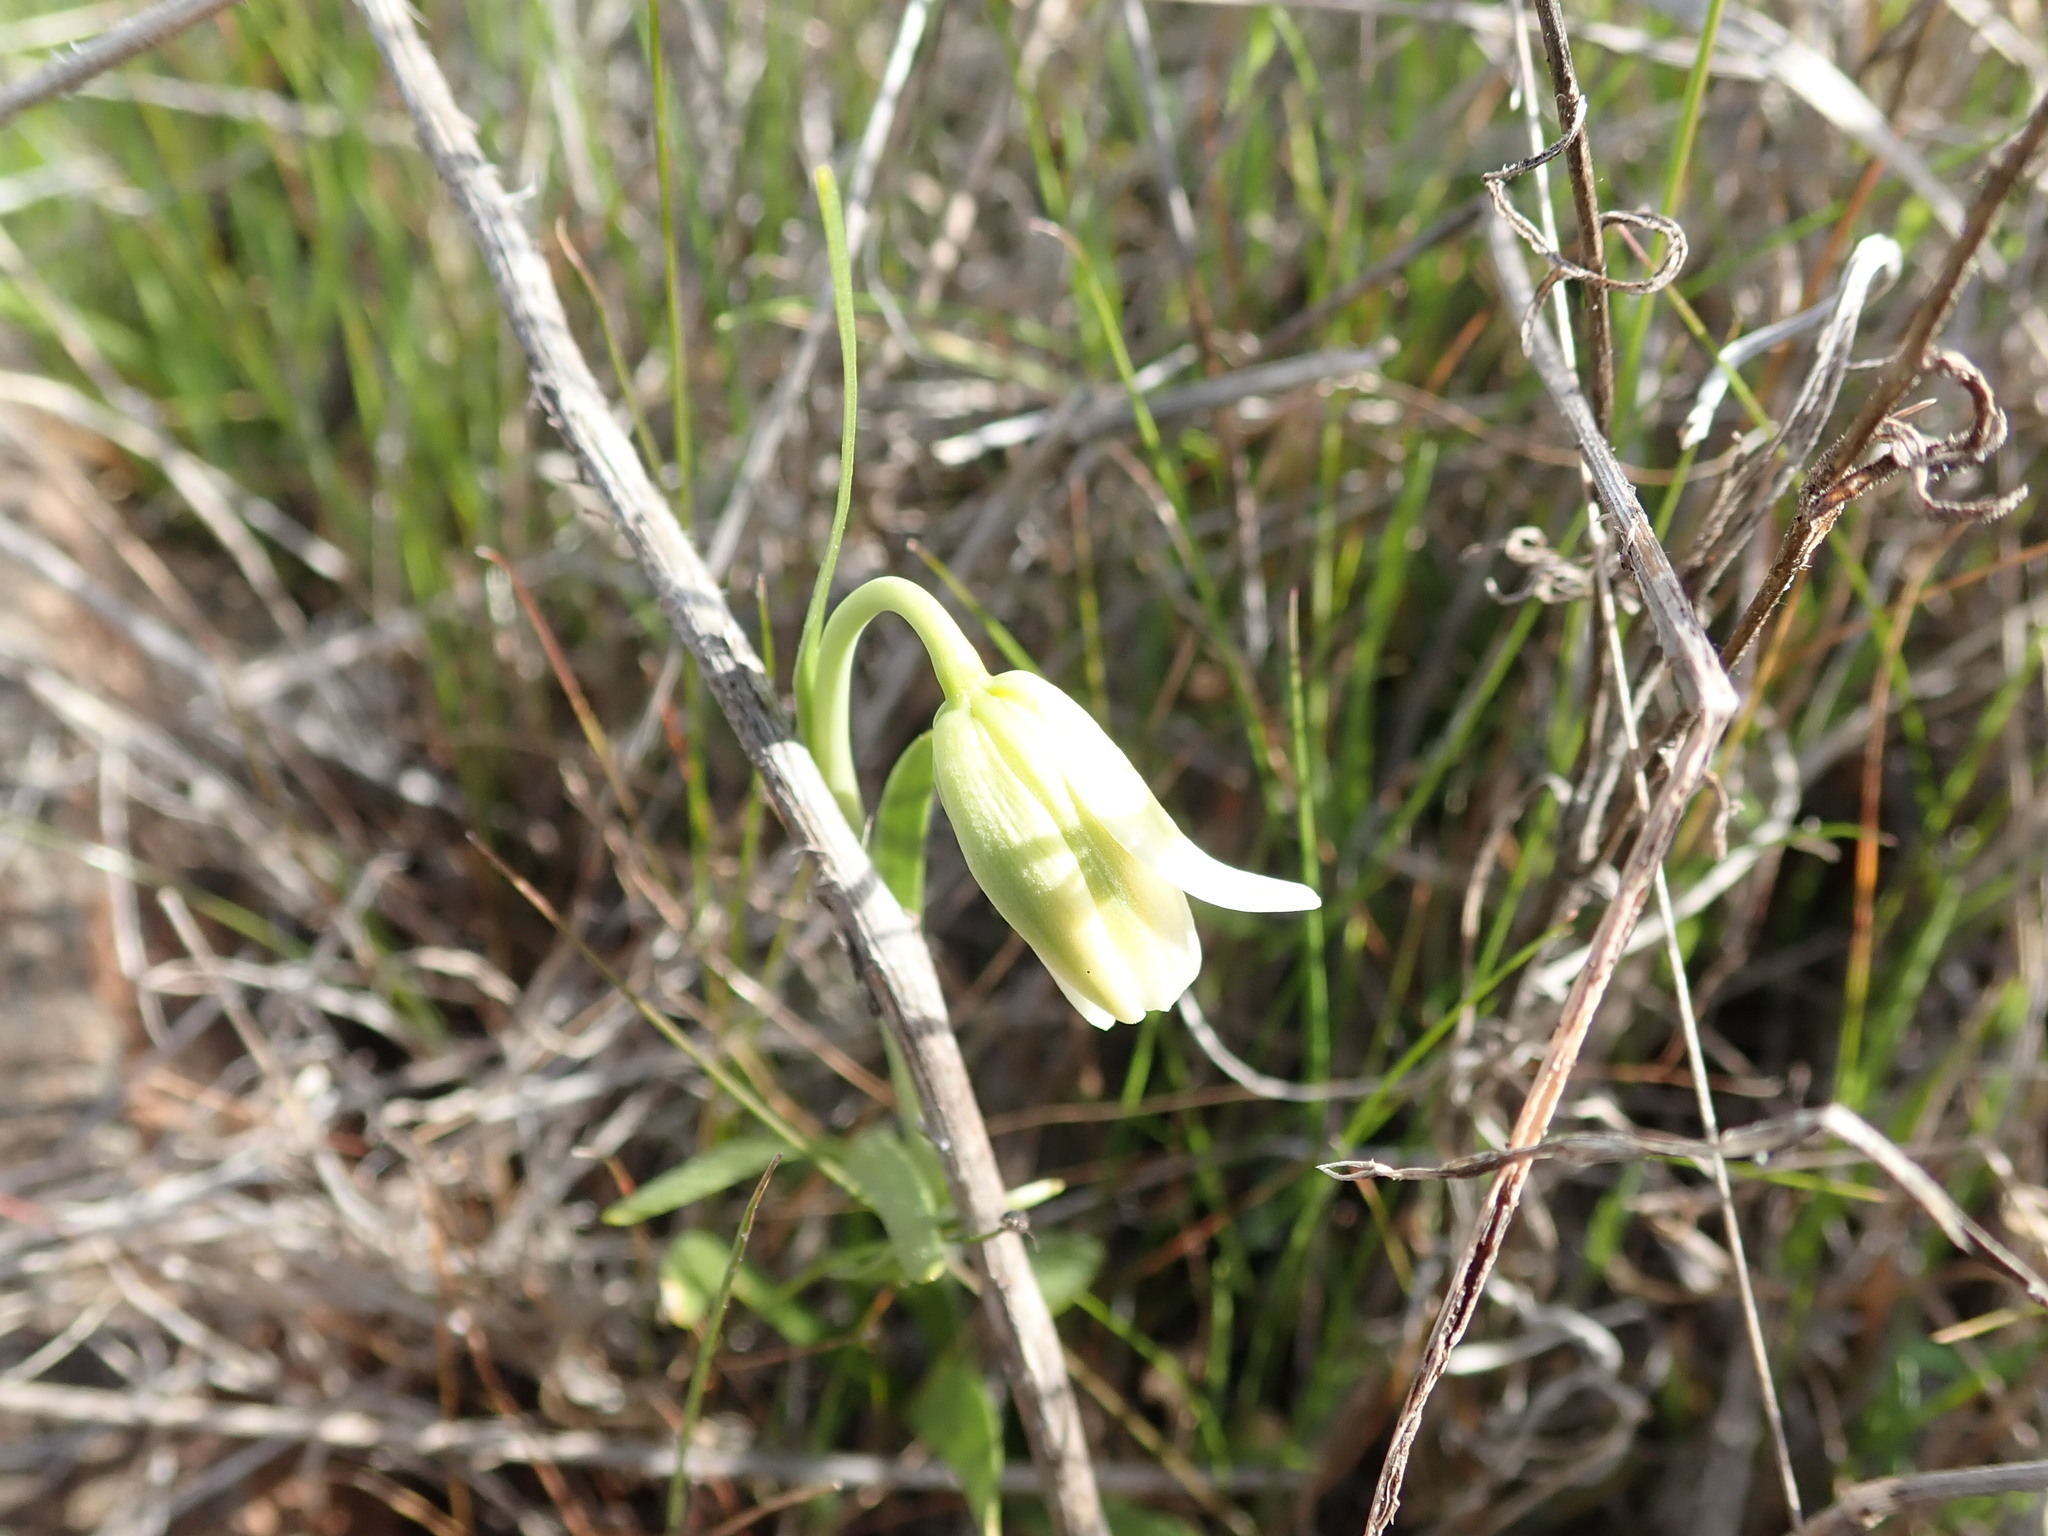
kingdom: Plantae
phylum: Tracheophyta
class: Liliopsida
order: Liliales
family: Liliaceae
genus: Fritillaria
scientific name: Fritillaria liliacea
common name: Fragrant fritillary
